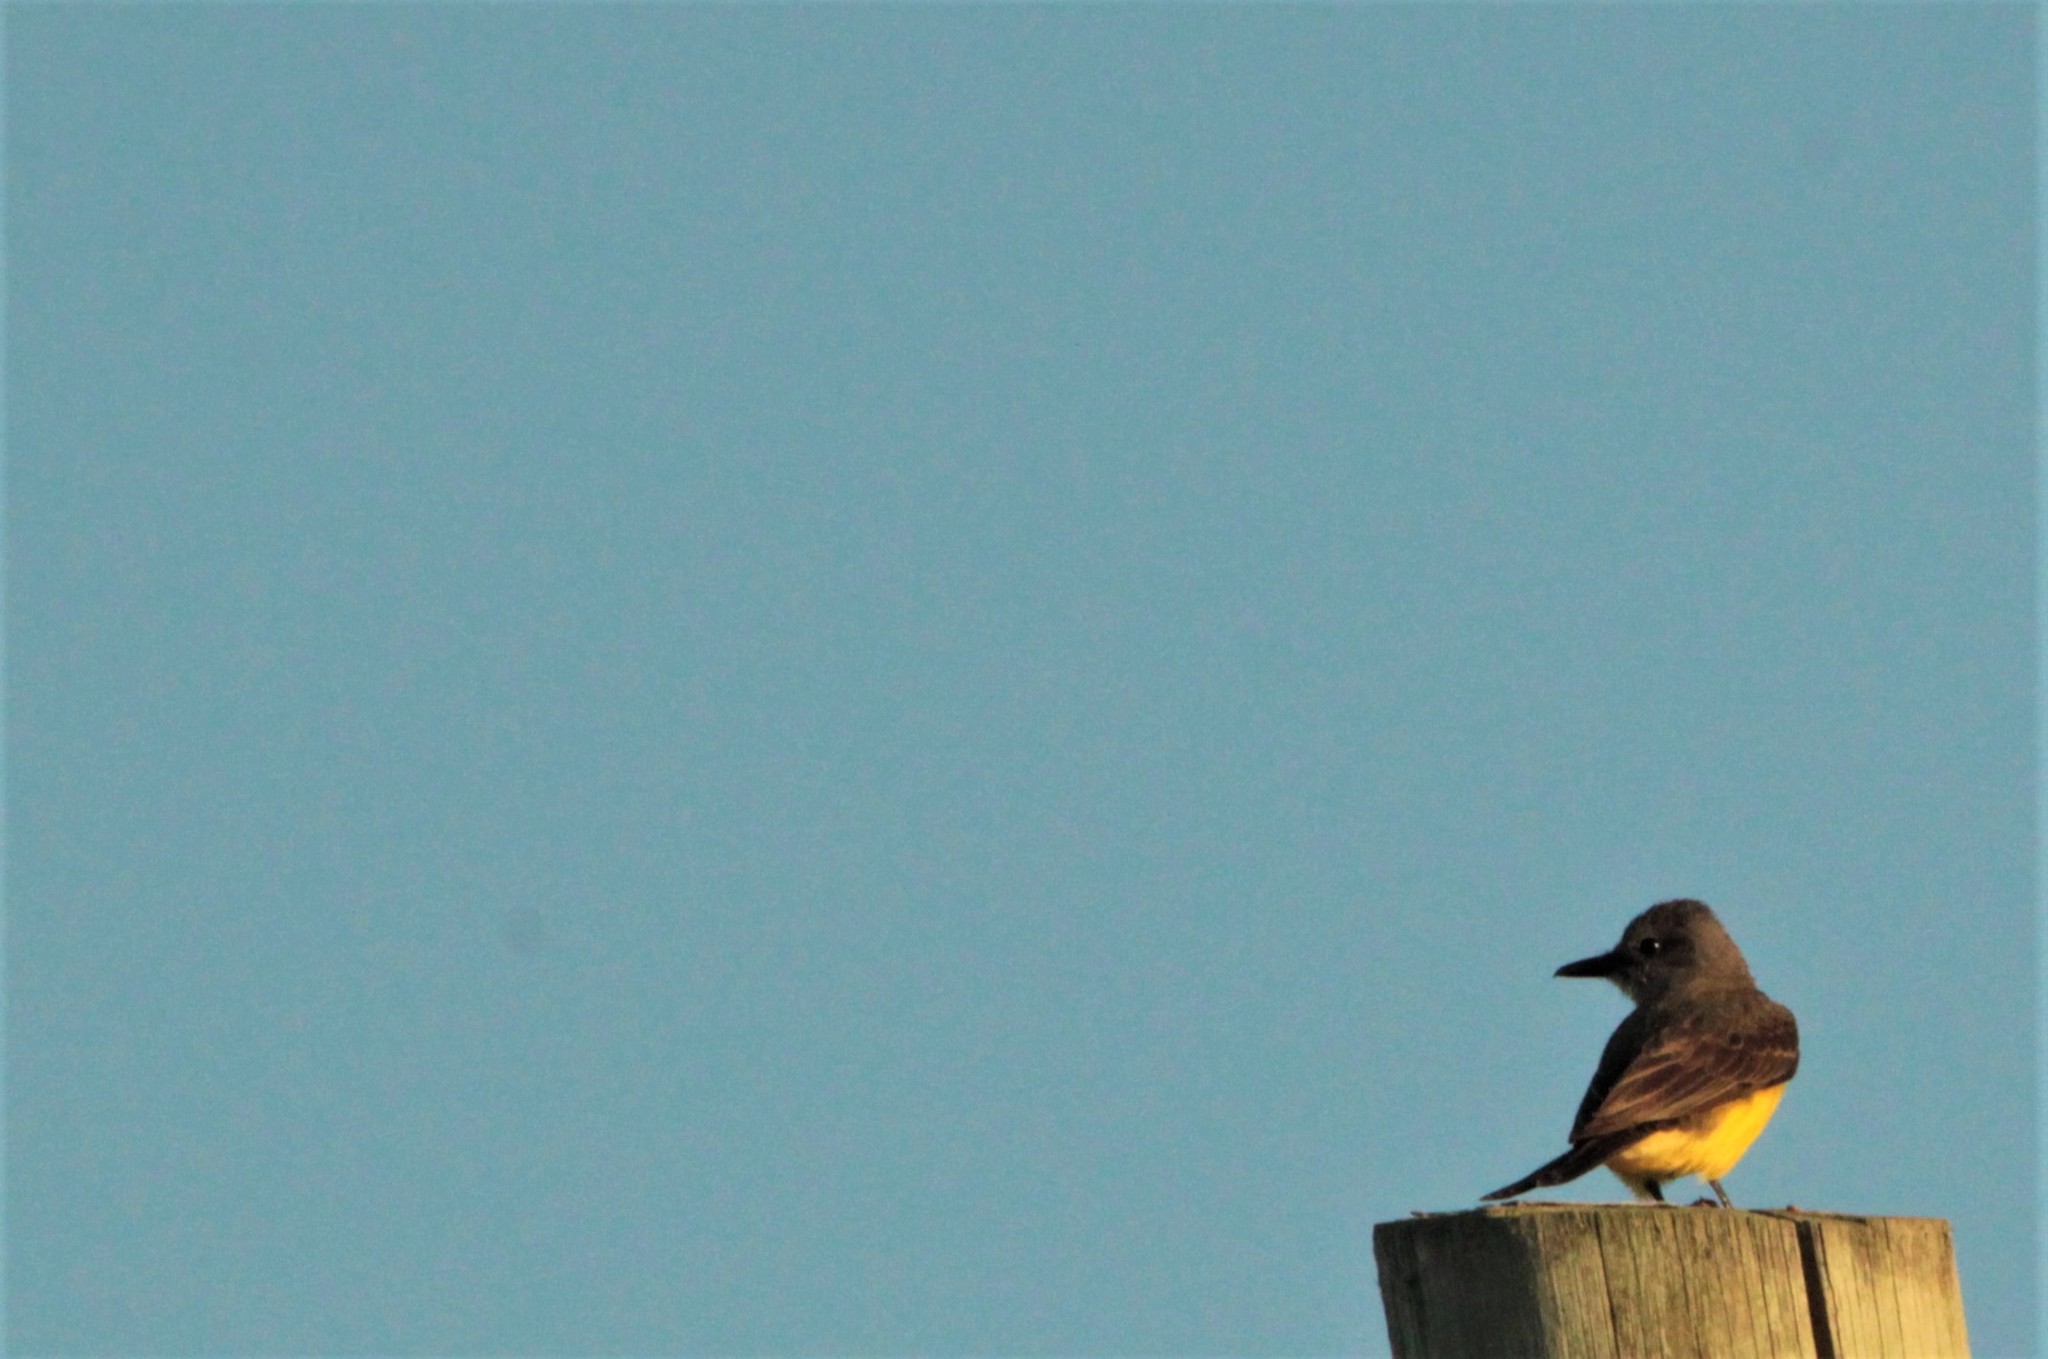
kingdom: Animalia
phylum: Chordata
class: Aves
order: Passeriformes
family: Tyrannidae
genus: Tyrannus
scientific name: Tyrannus melancholicus
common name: Tropical kingbird
